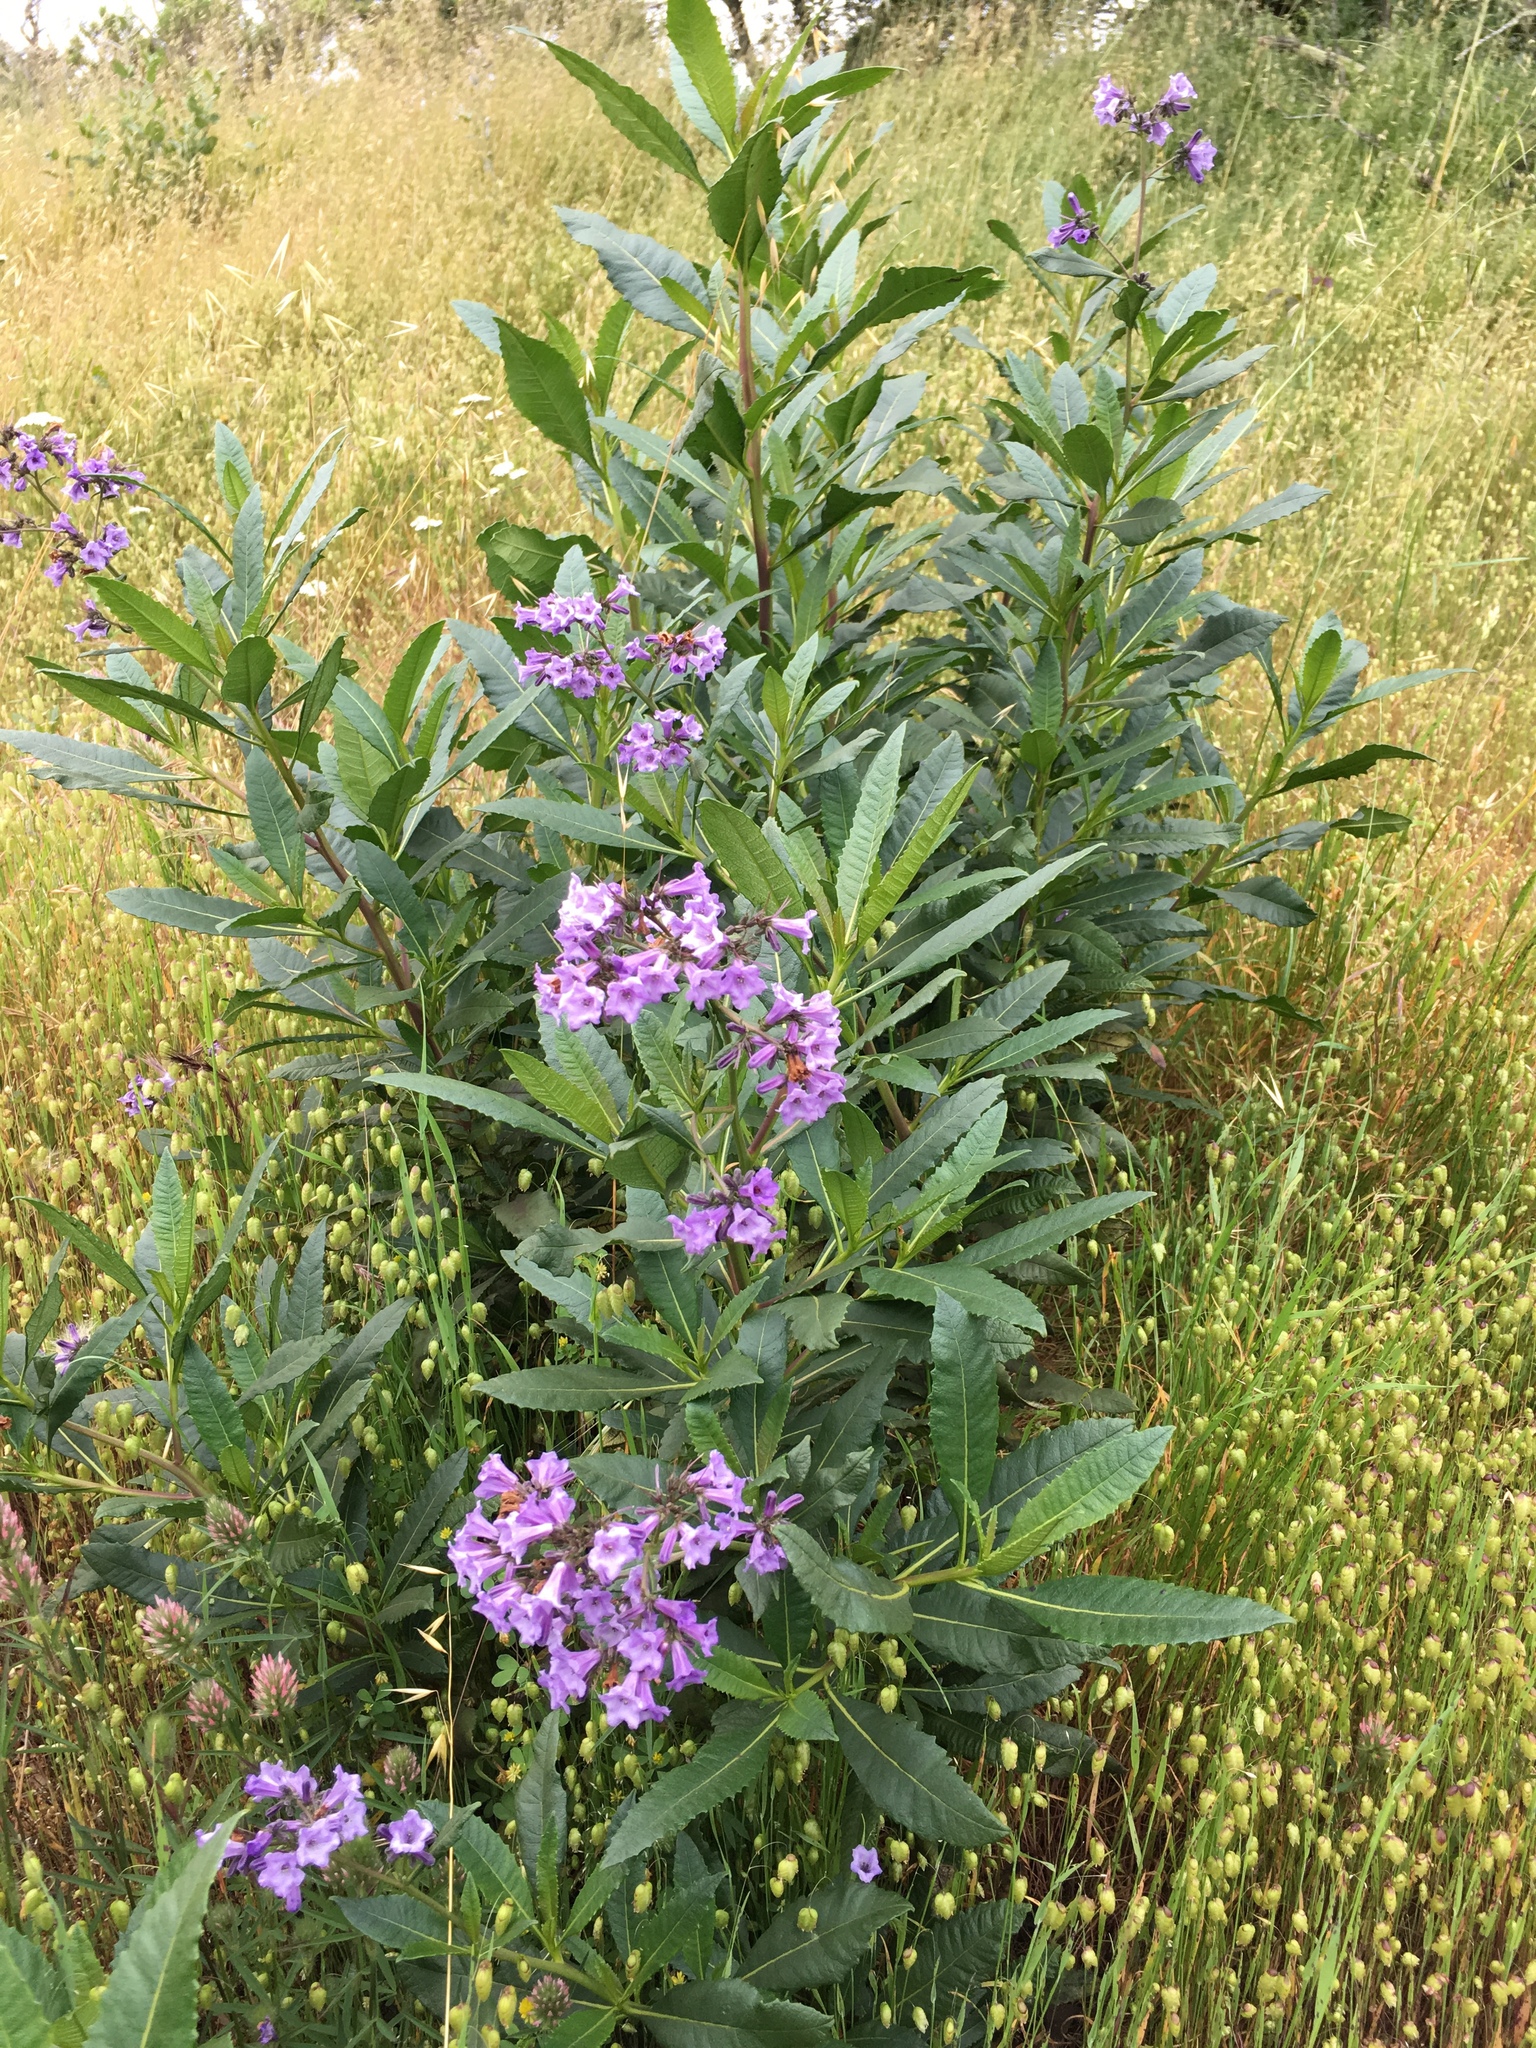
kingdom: Plantae
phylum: Tracheophyta
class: Magnoliopsida
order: Boraginales
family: Namaceae
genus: Eriodictyon
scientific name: Eriodictyon californicum
